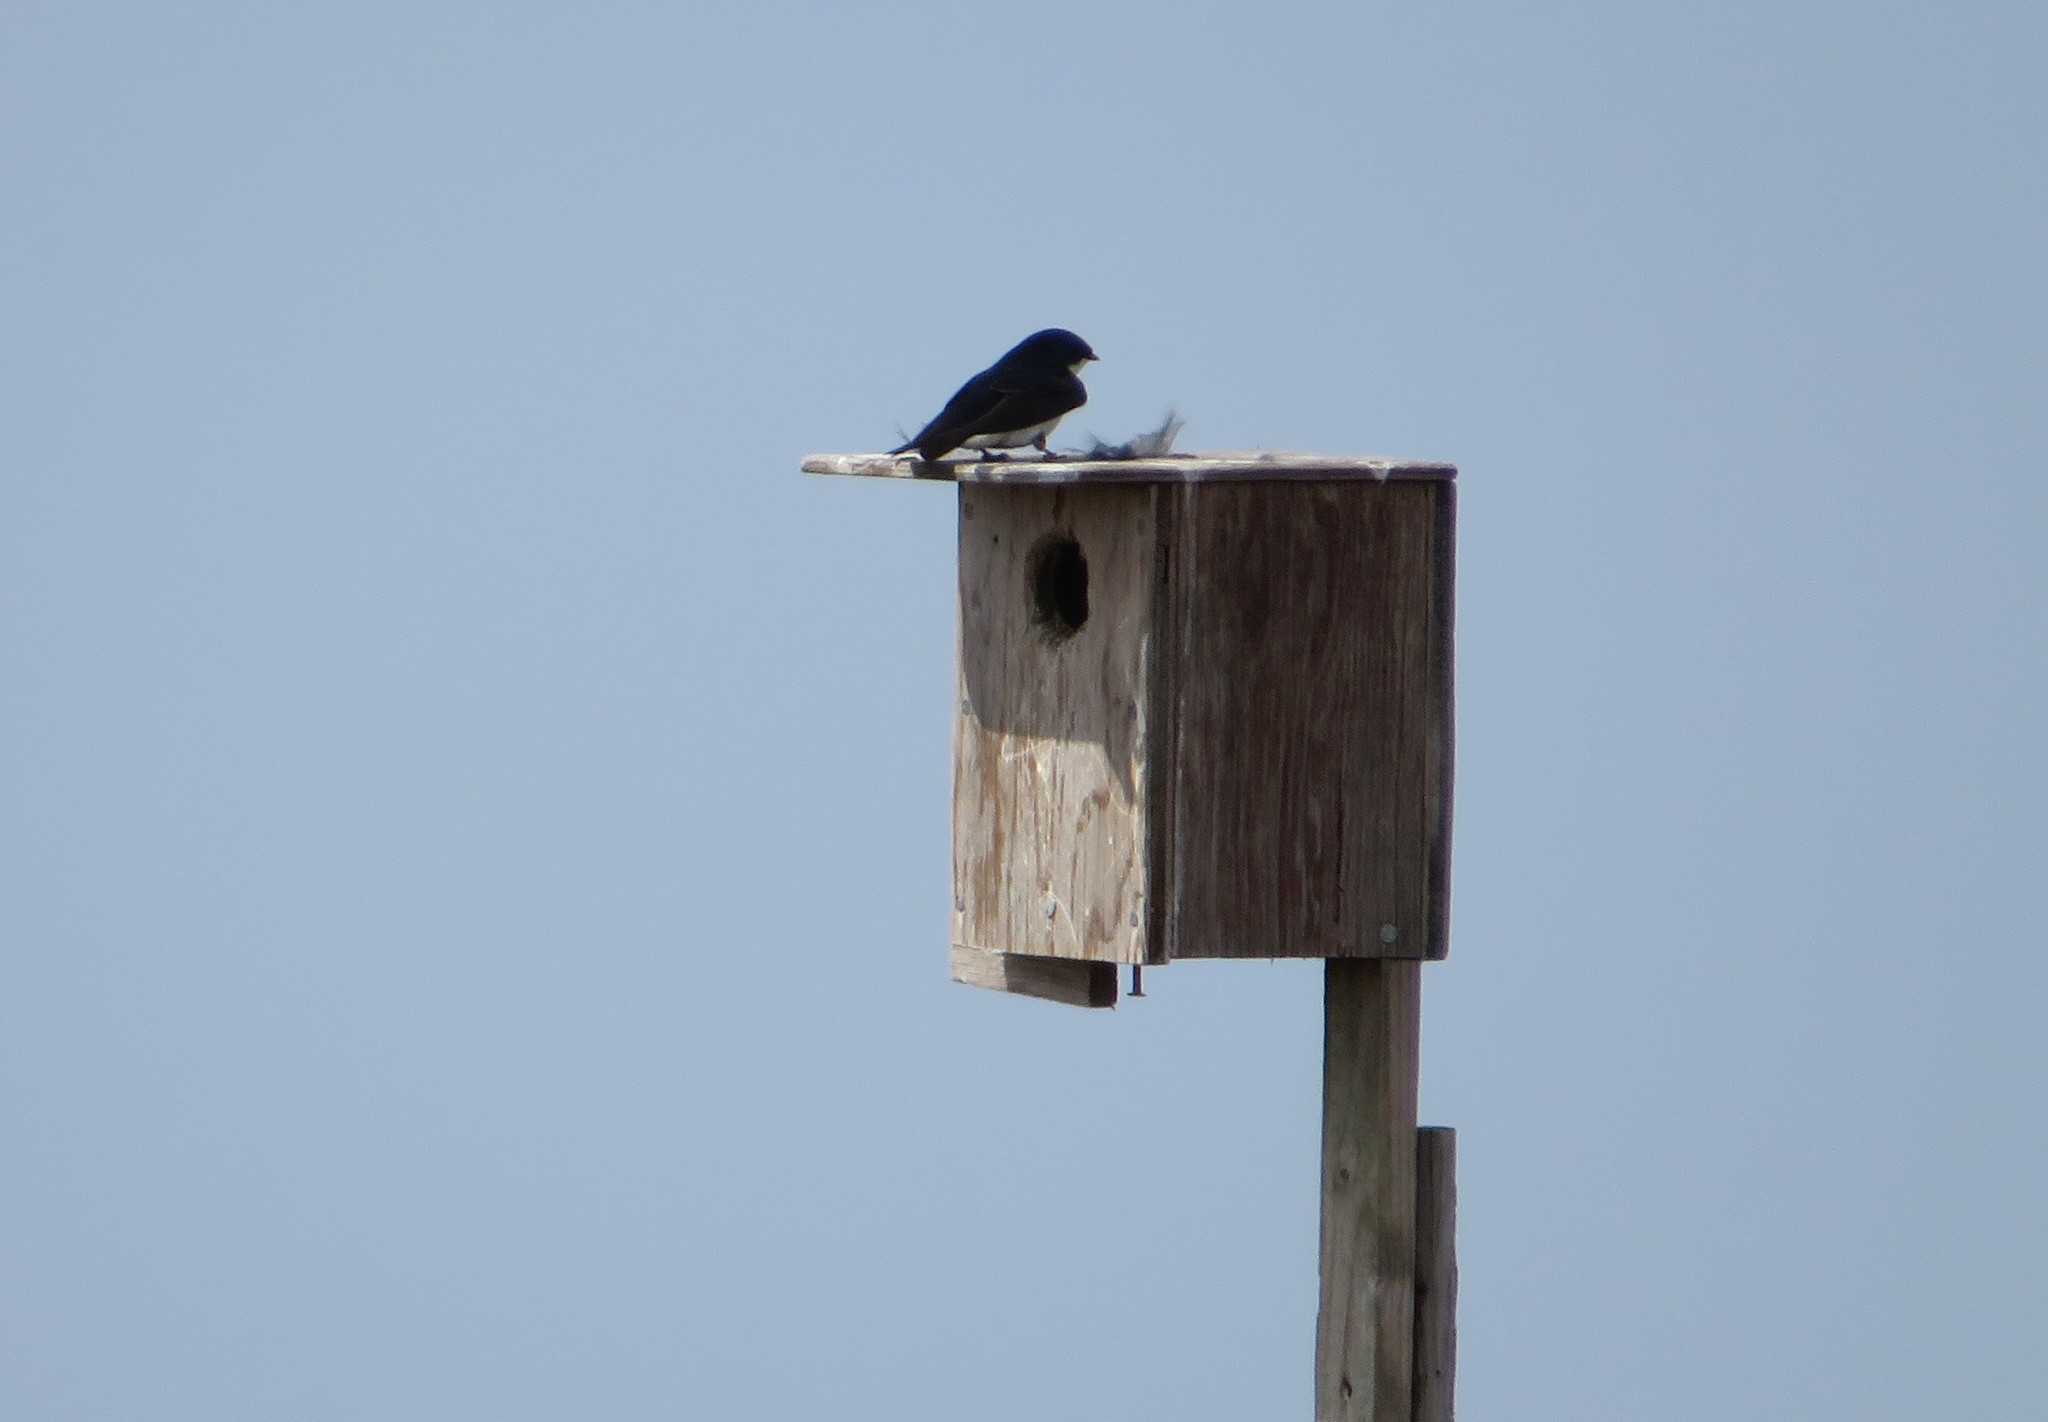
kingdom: Animalia
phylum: Chordata
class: Aves
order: Passeriformes
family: Hirundinidae
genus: Tachycineta
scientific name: Tachycineta bicolor
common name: Tree swallow
